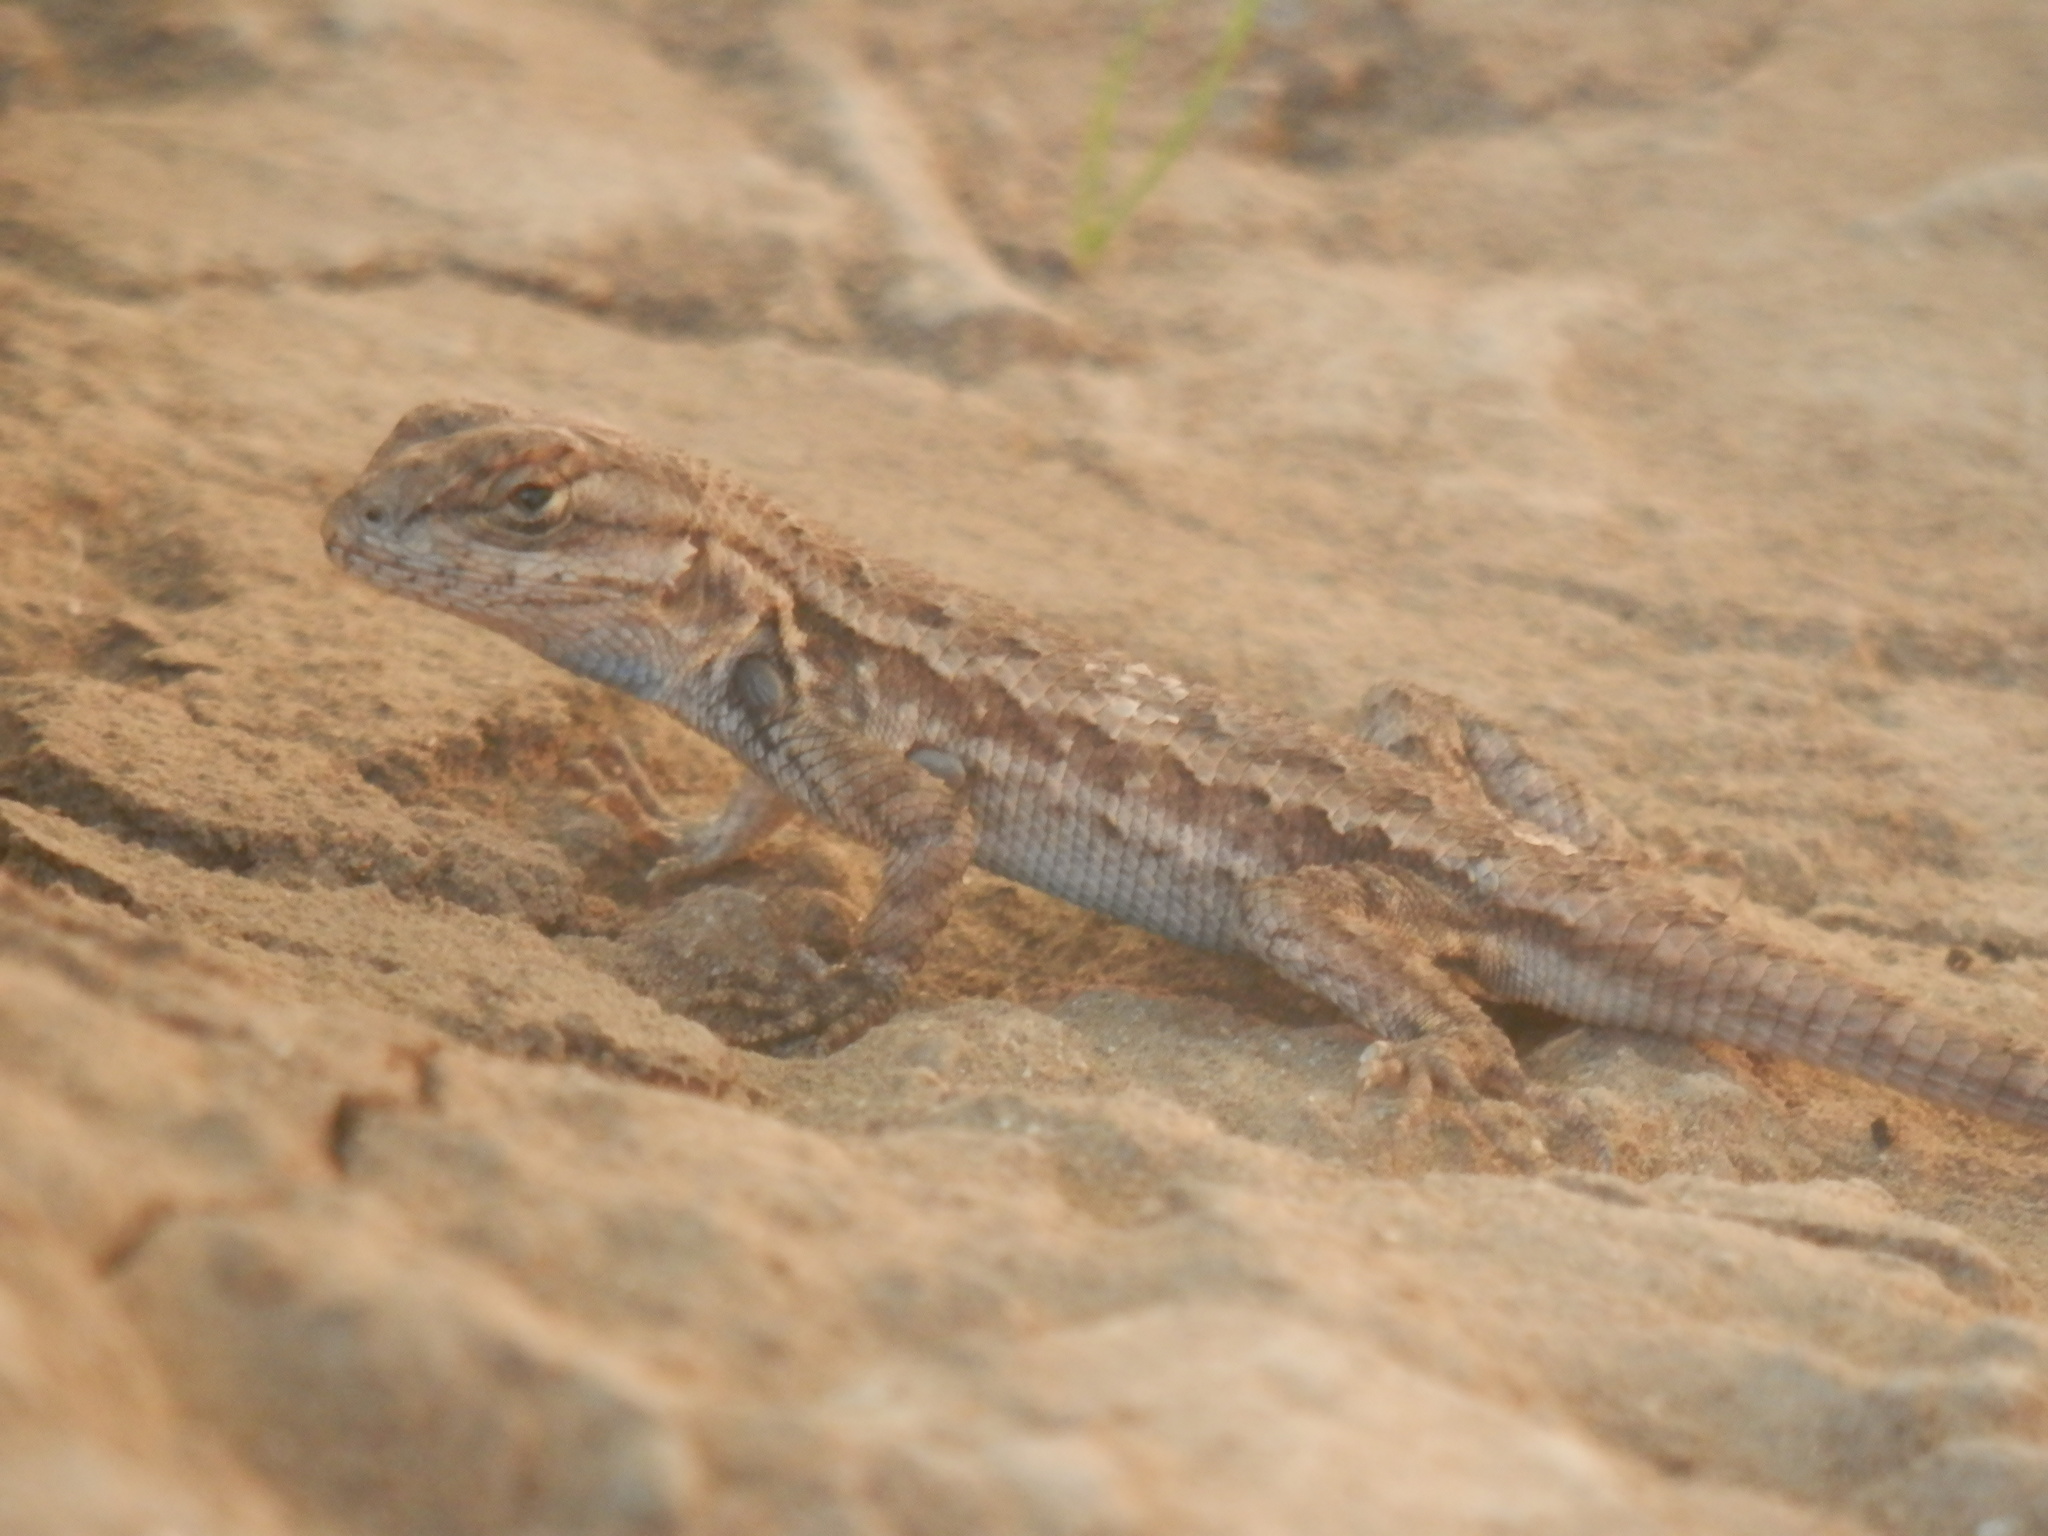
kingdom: Animalia
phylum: Chordata
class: Squamata
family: Phrynosomatidae
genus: Sceloporus
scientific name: Sceloporus occidentalis
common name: Western fence lizard
